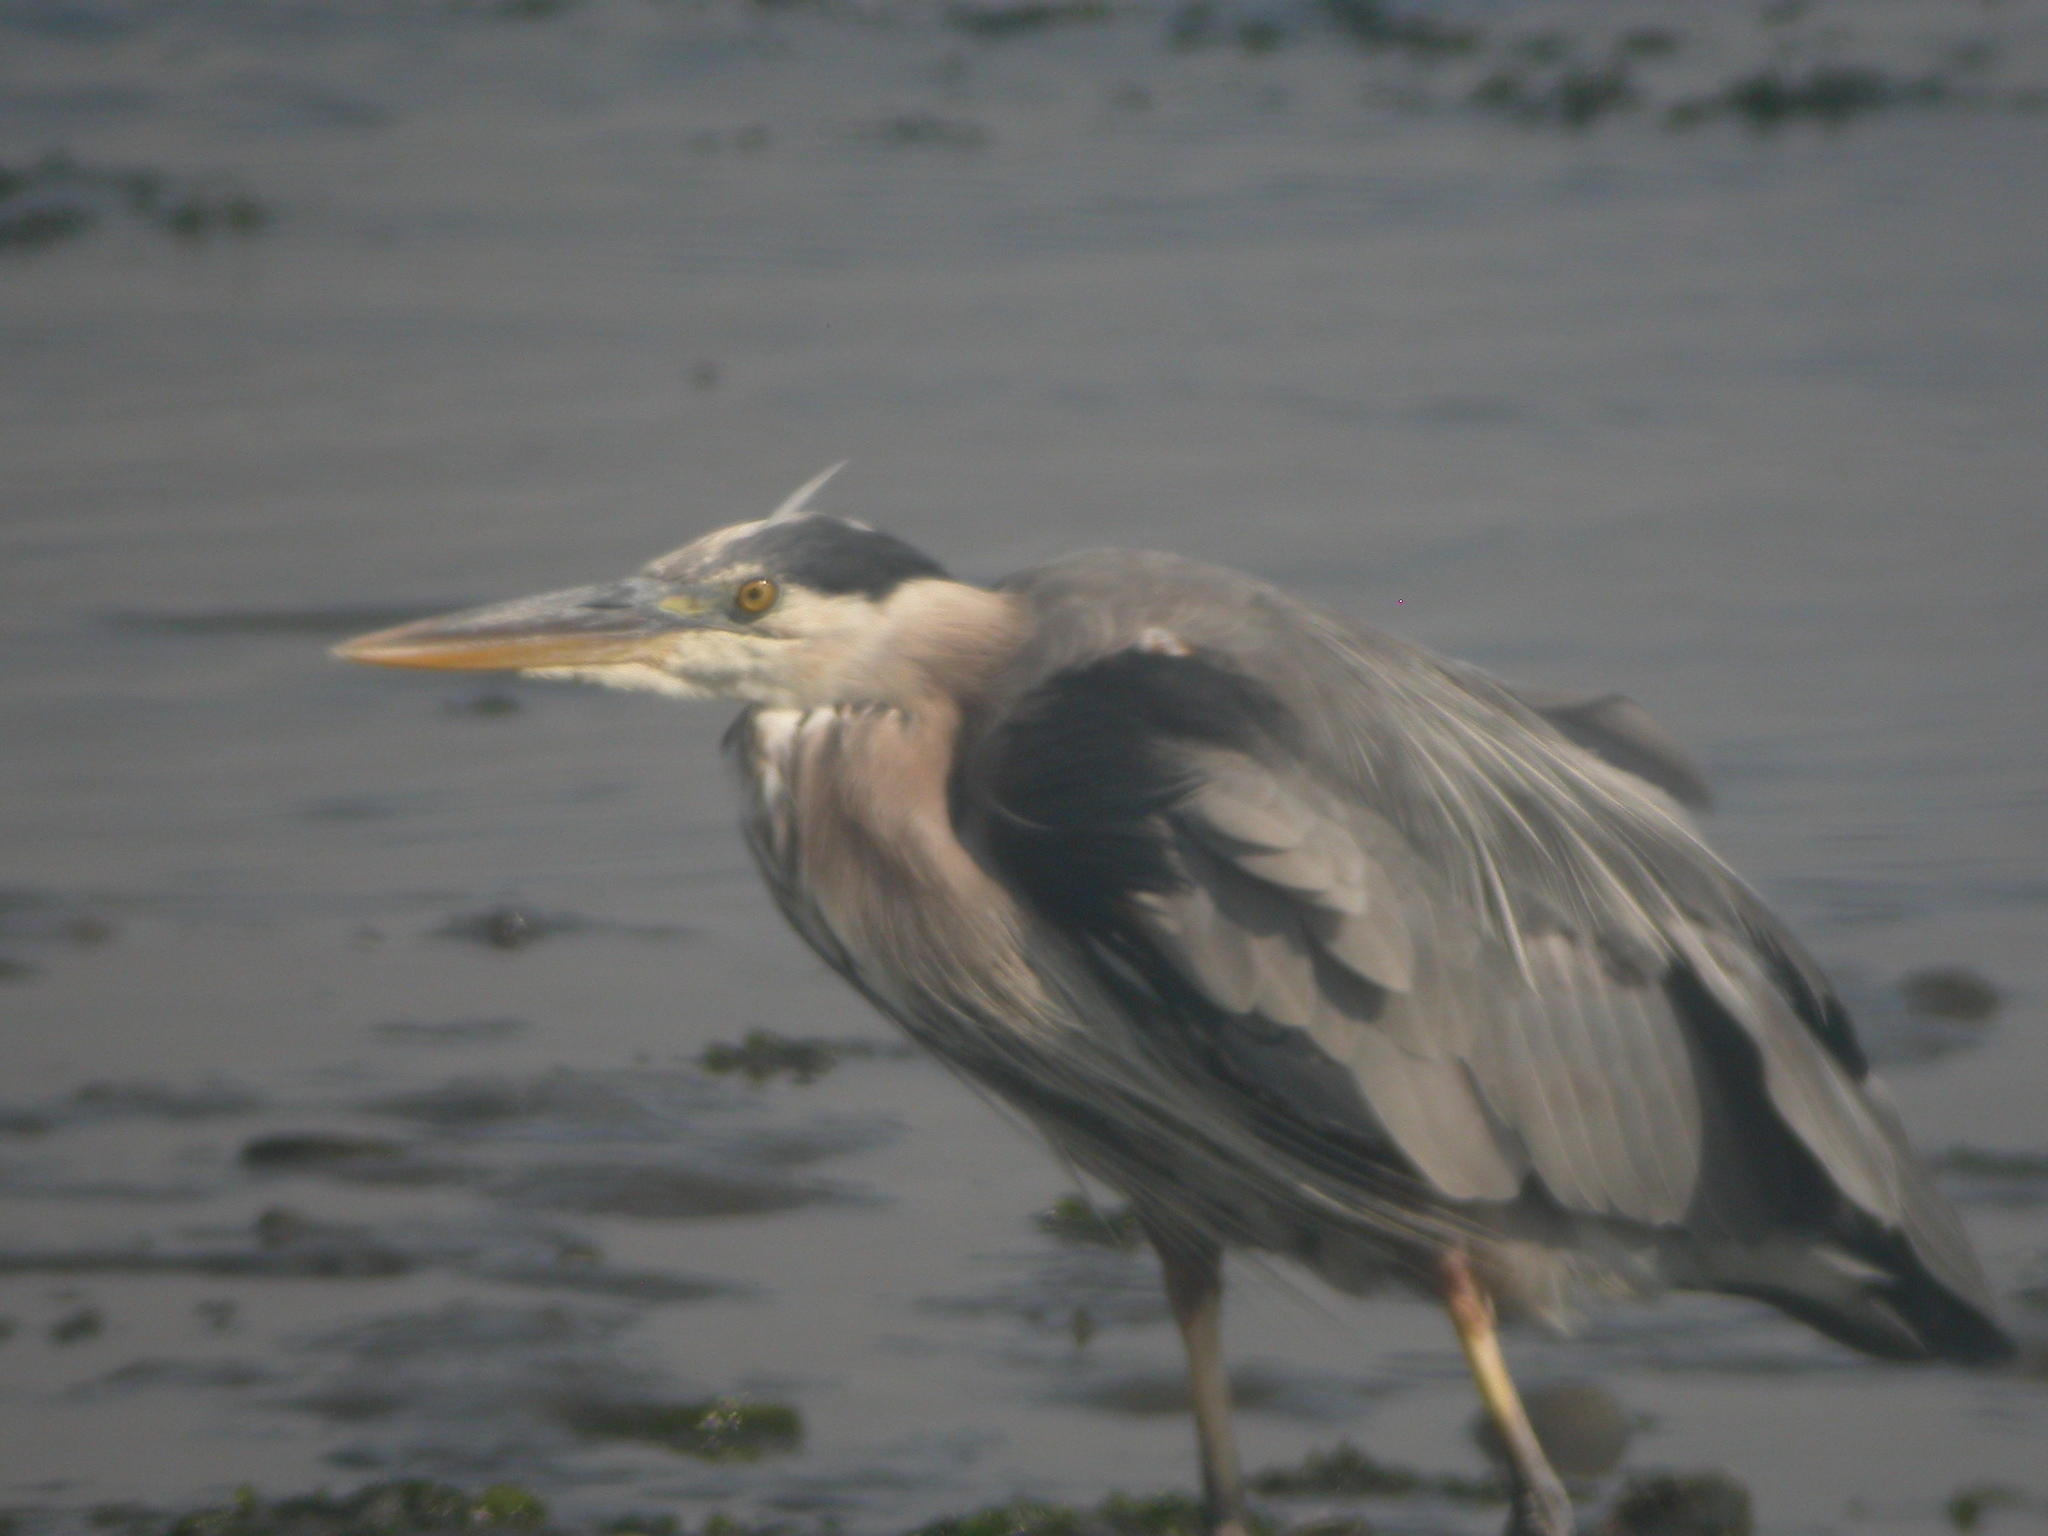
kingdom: Animalia
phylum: Chordata
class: Aves
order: Pelecaniformes
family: Ardeidae
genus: Ardea
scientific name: Ardea herodias
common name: Great blue heron
